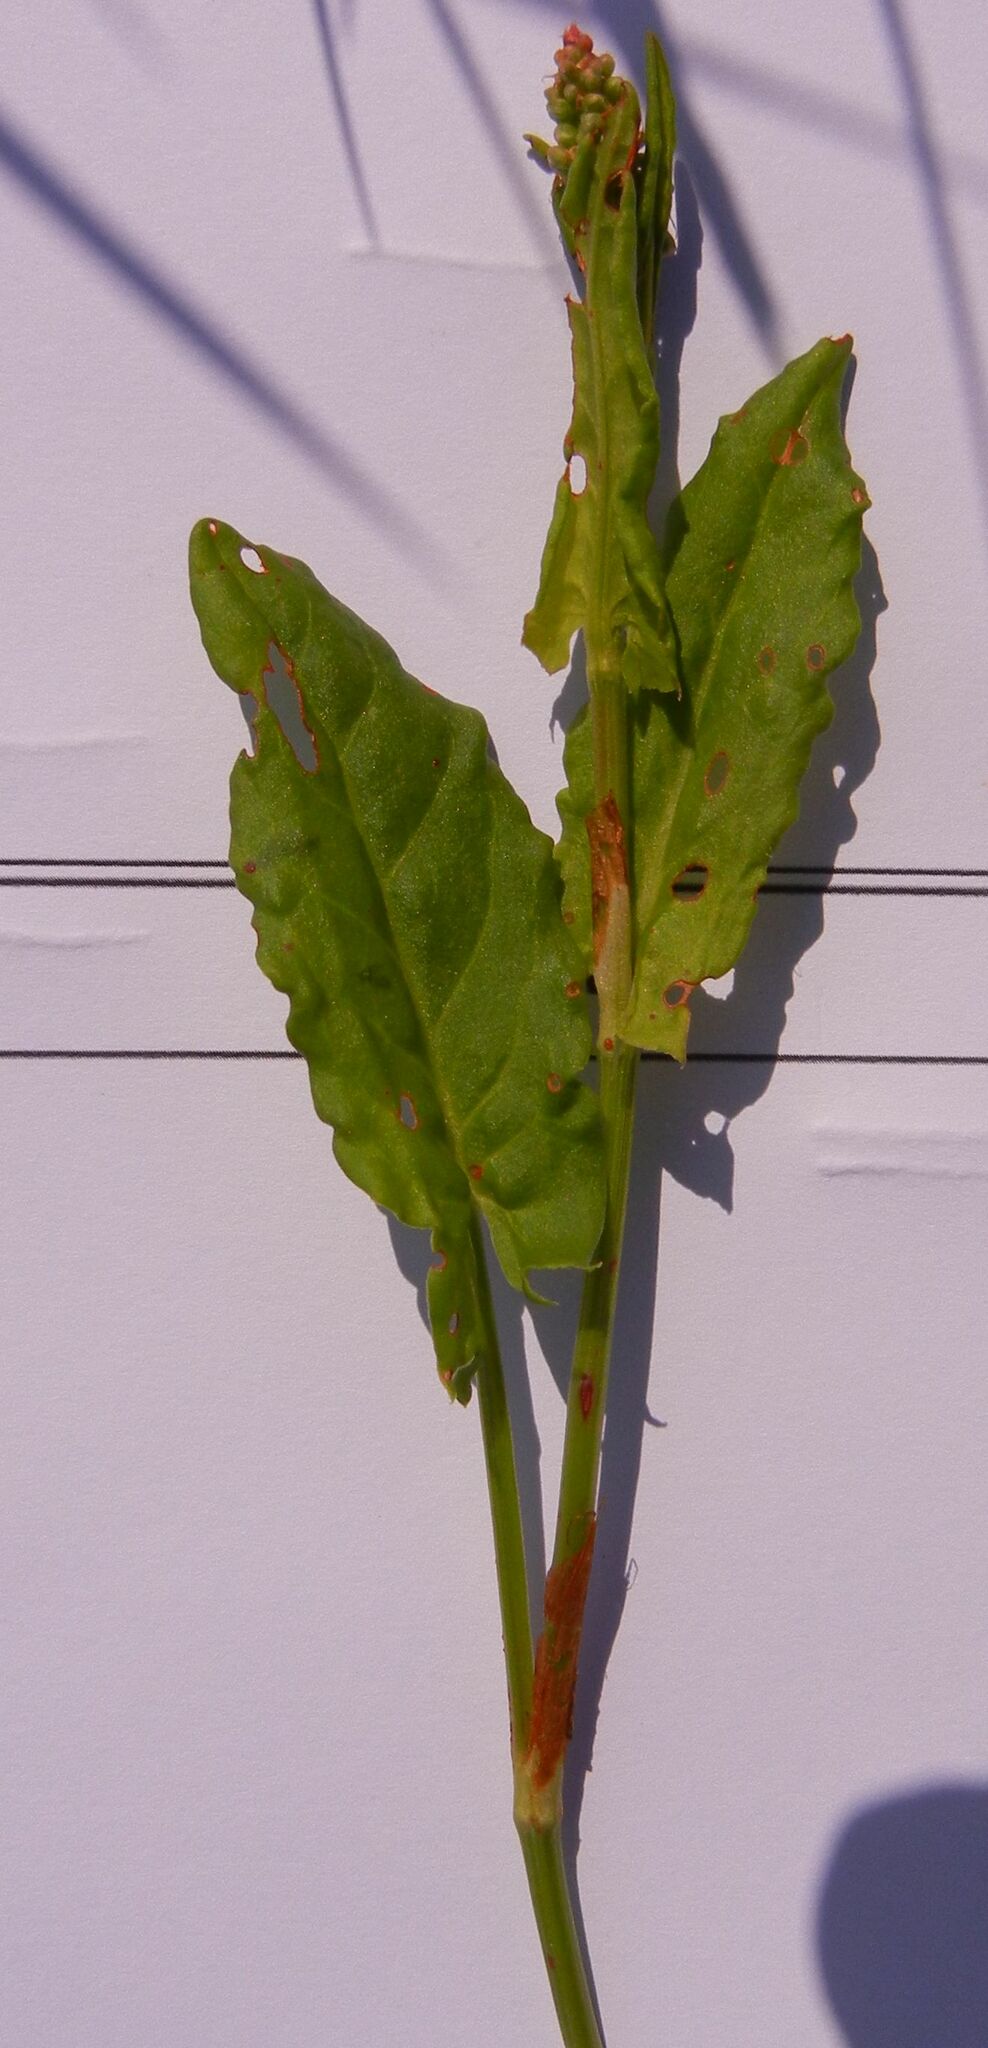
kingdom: Plantae
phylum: Tracheophyta
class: Magnoliopsida
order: Caryophyllales
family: Polygonaceae
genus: Rumex
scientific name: Rumex acetosa
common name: Garden sorrel
